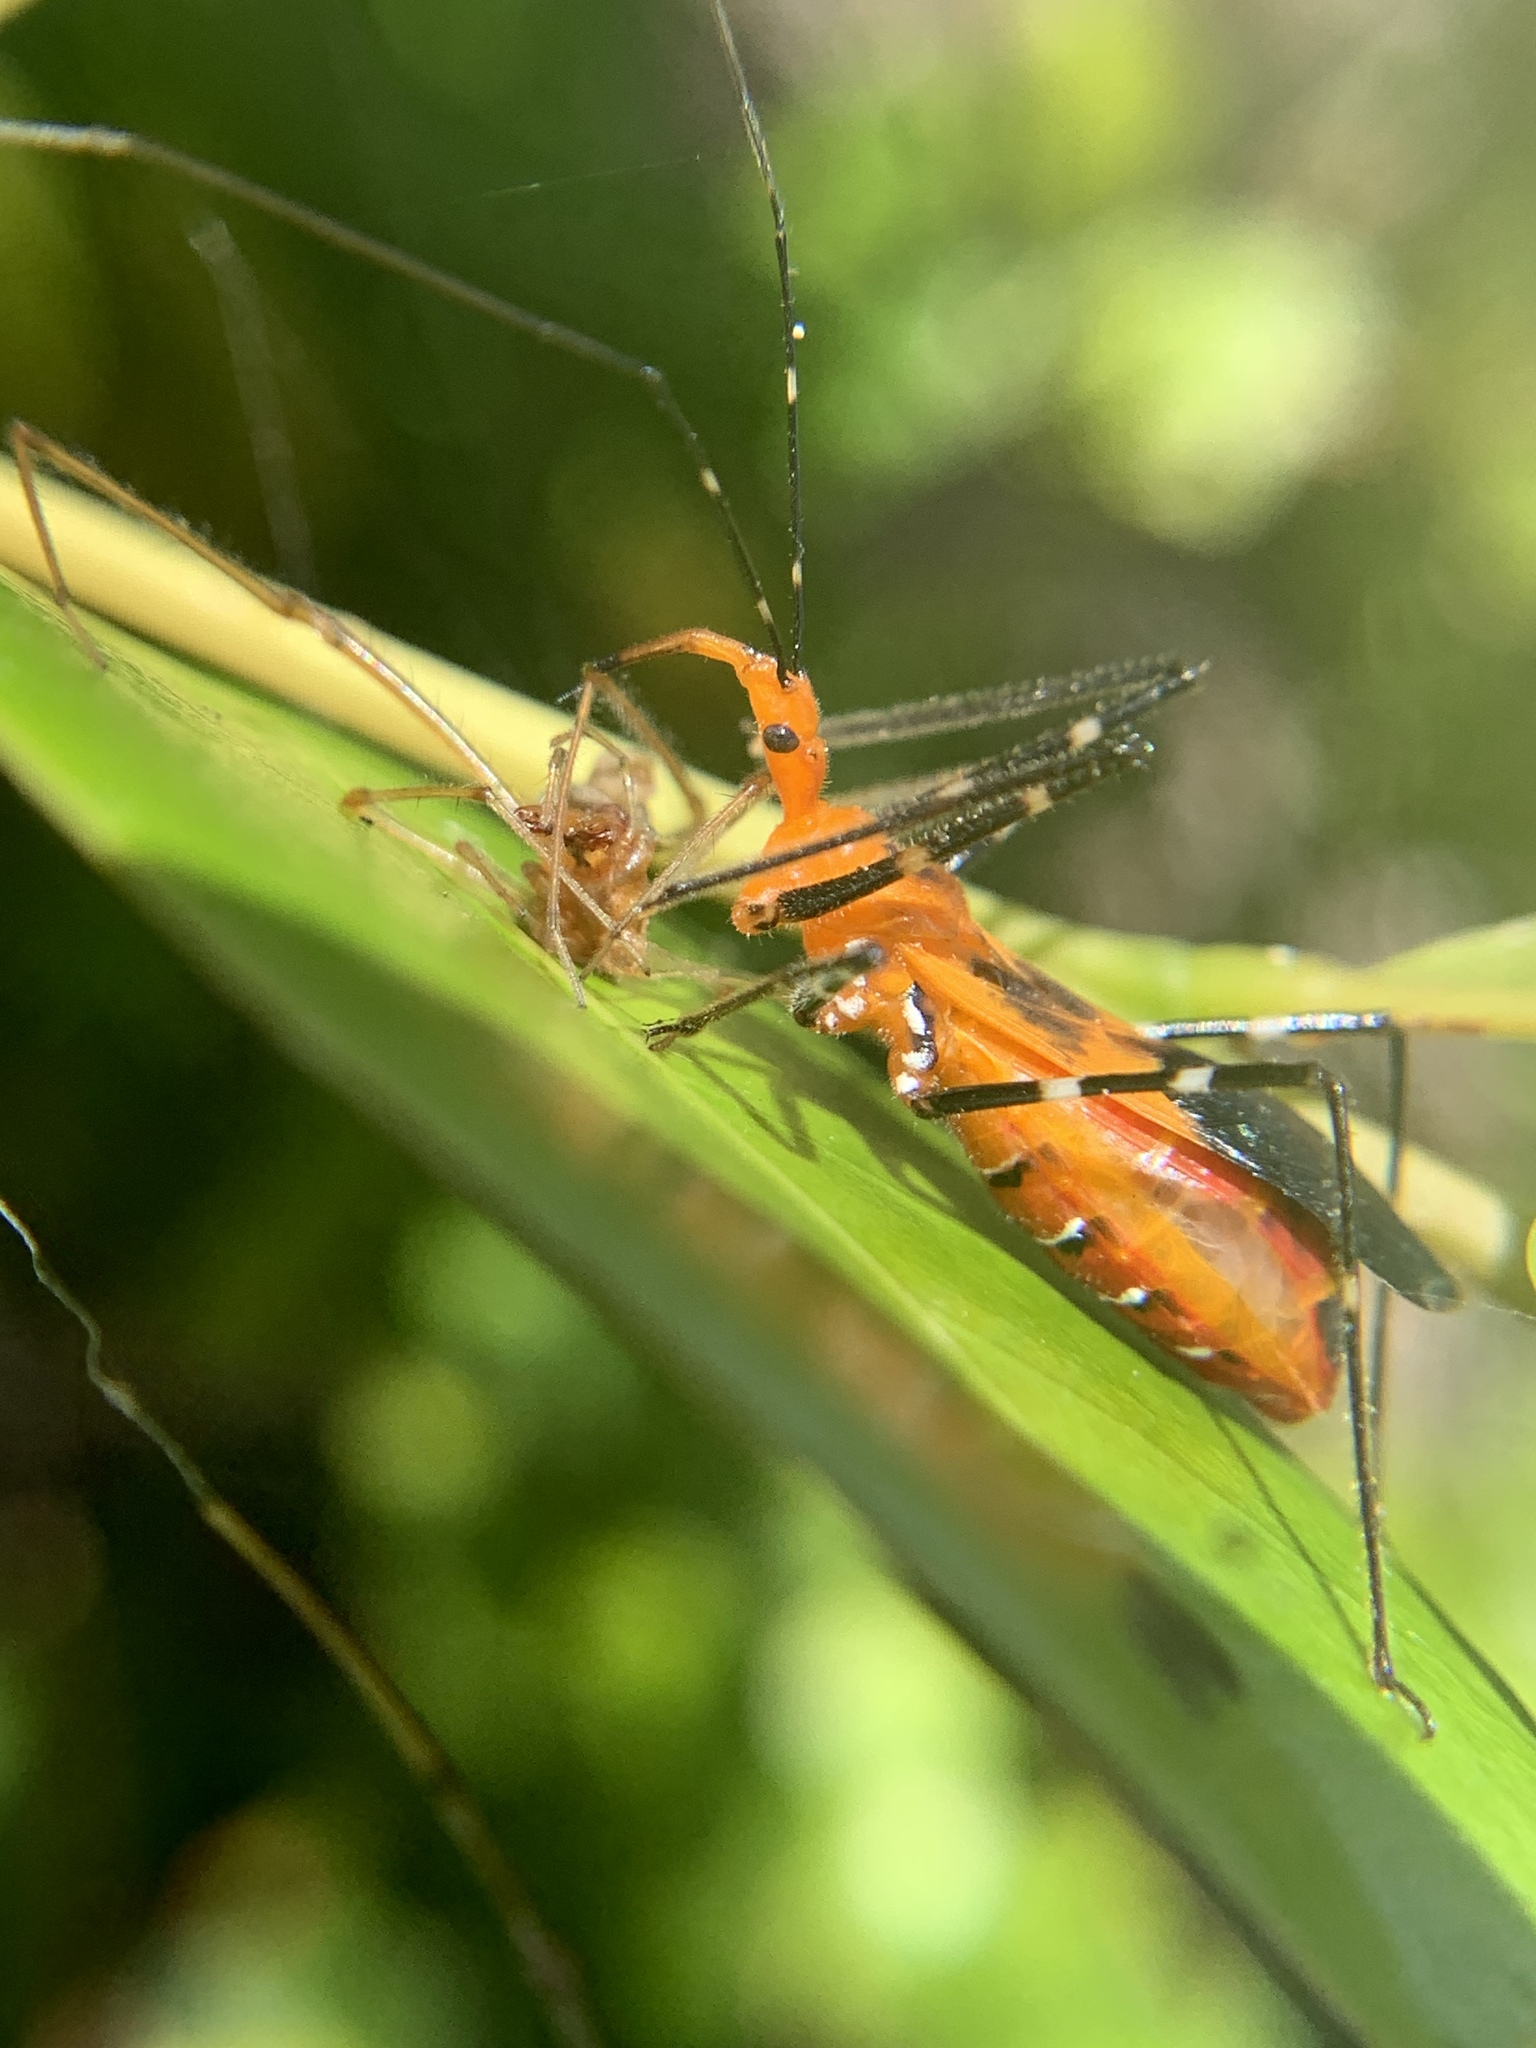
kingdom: Animalia
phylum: Arthropoda
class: Insecta
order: Hemiptera
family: Reduviidae
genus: Zelus
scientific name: Zelus longipes
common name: Milkweed assassin bug
